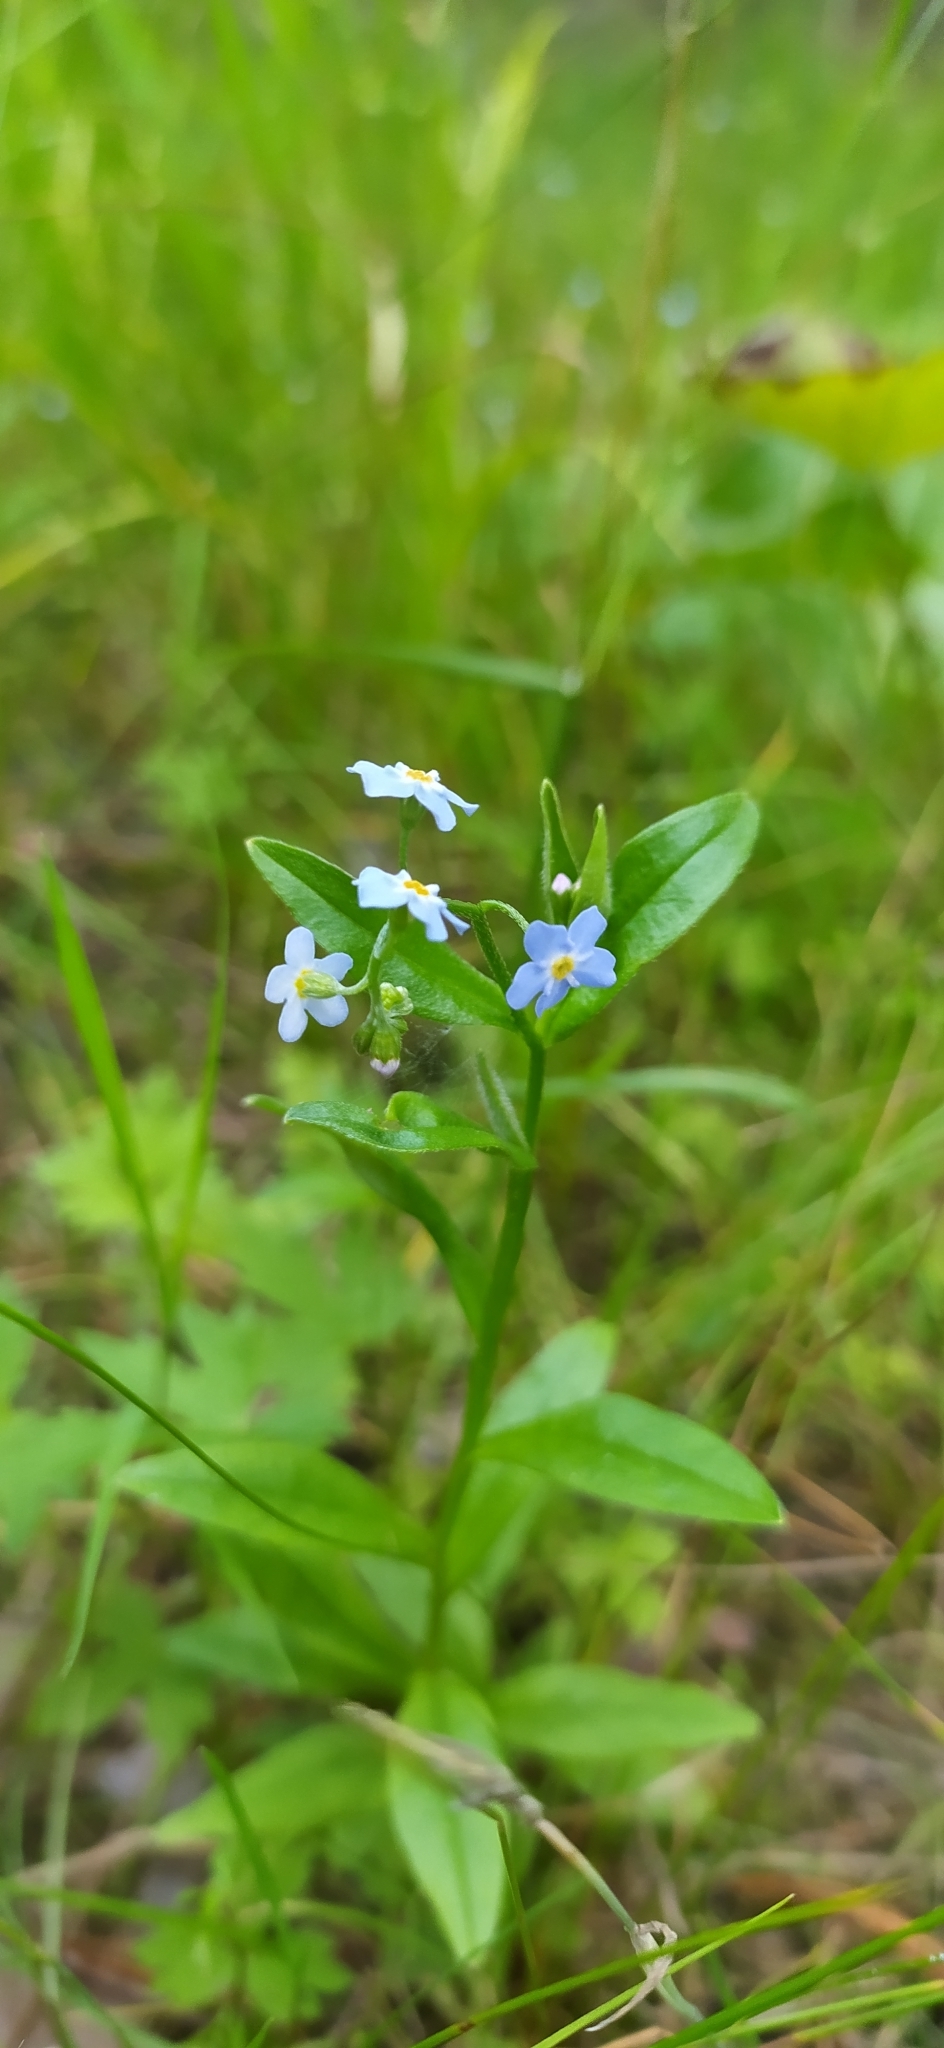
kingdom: Plantae
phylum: Tracheophyta
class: Magnoliopsida
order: Boraginales
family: Boraginaceae
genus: Myosotis
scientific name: Myosotis scorpioides
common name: Water forget-me-not
